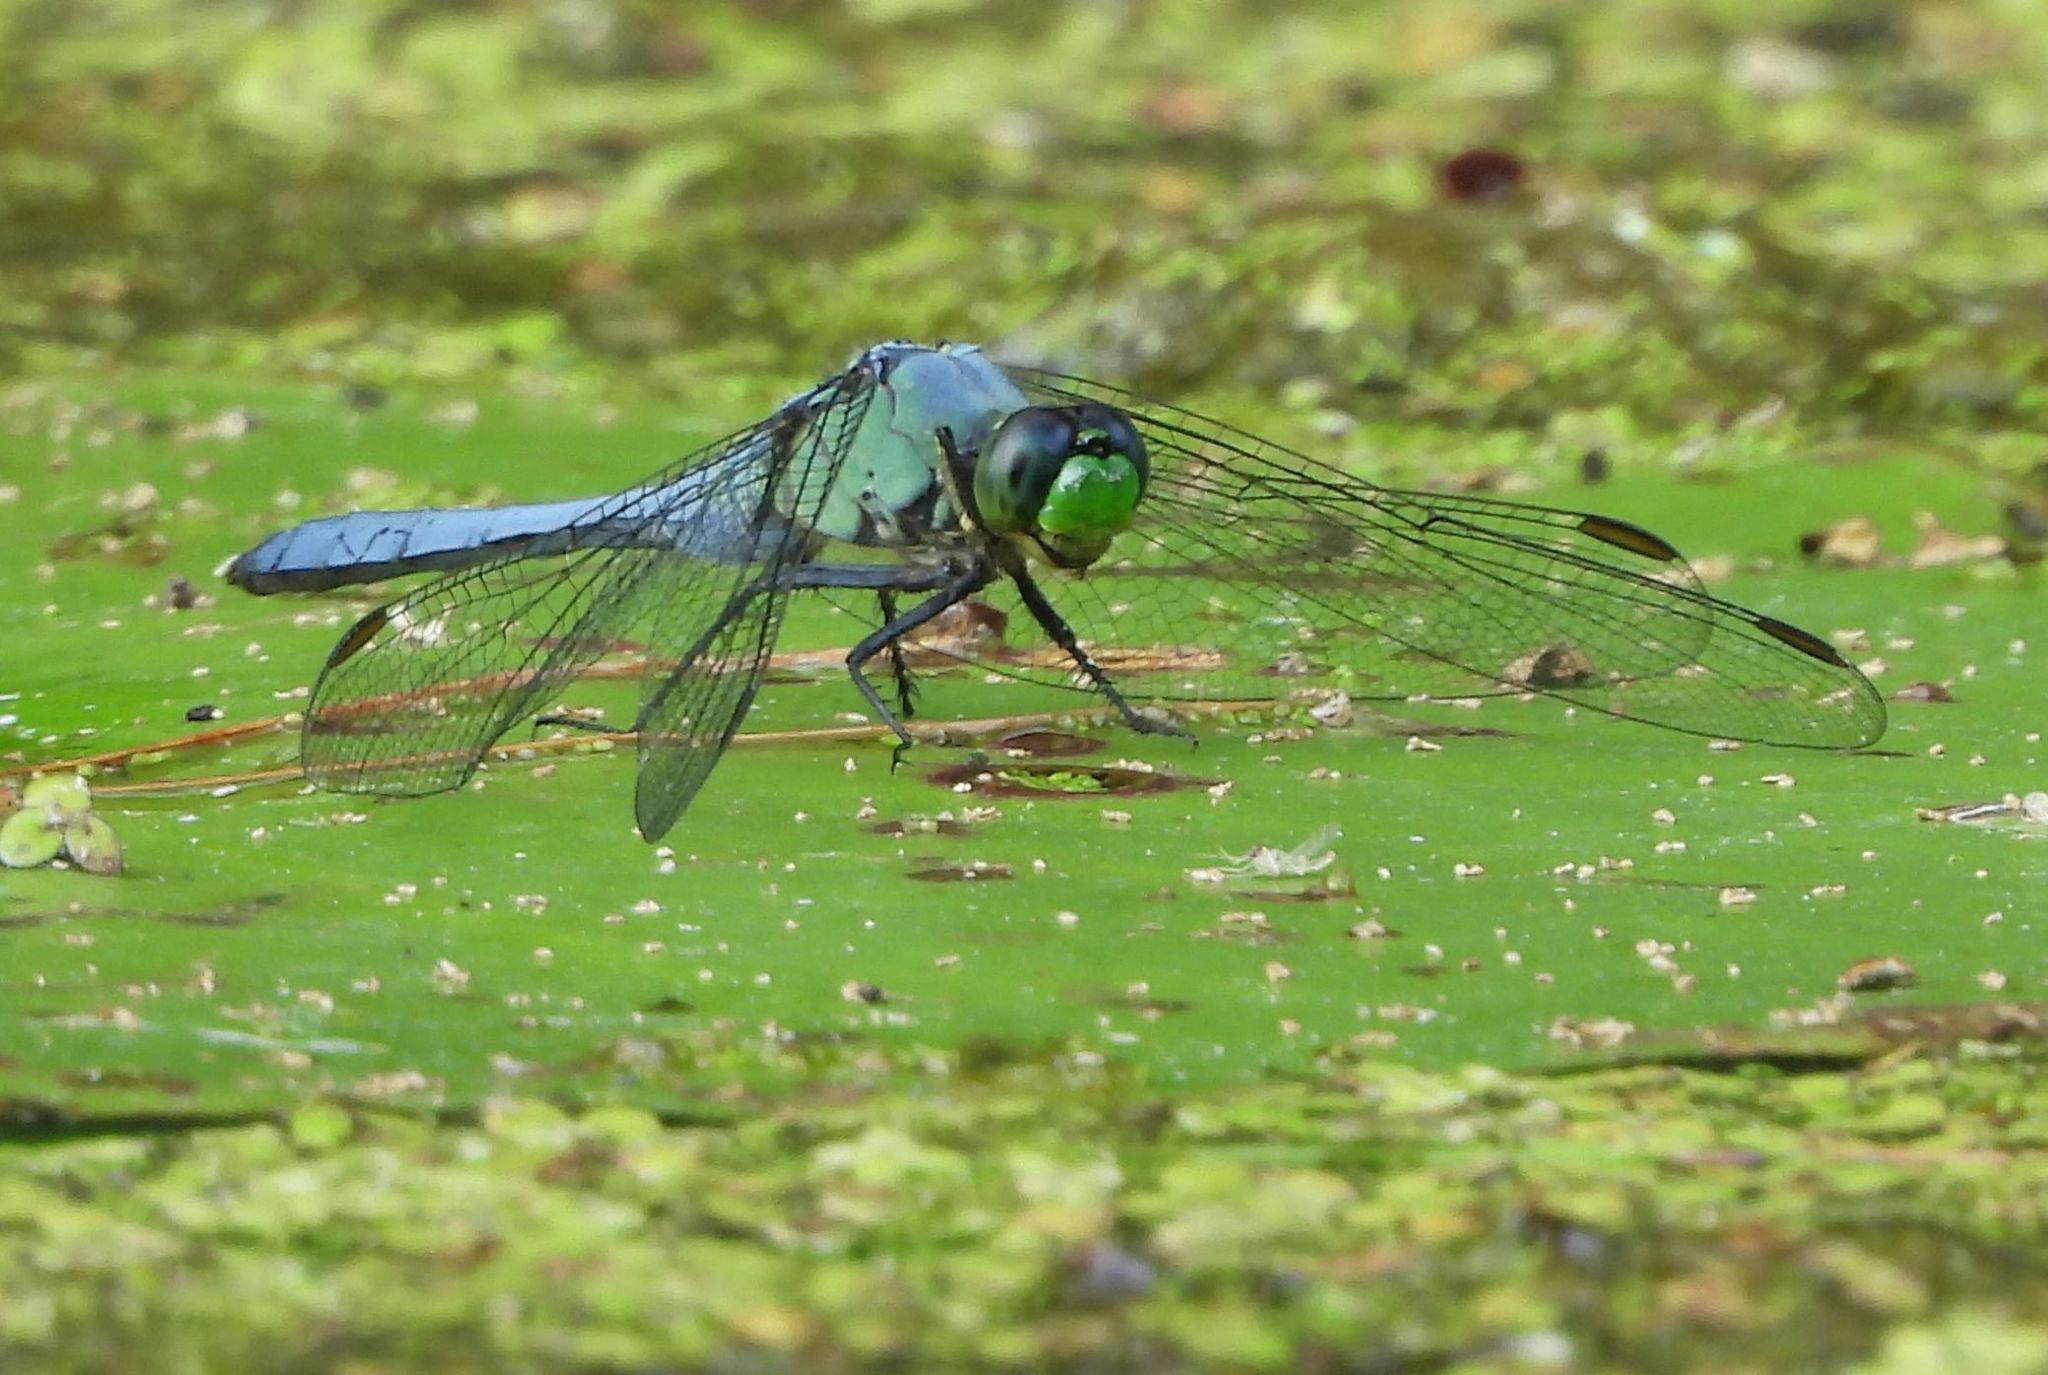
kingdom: Animalia
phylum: Arthropoda
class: Insecta
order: Odonata
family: Libellulidae
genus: Erythemis
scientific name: Erythemis simplicicollis
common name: Eastern pondhawk
